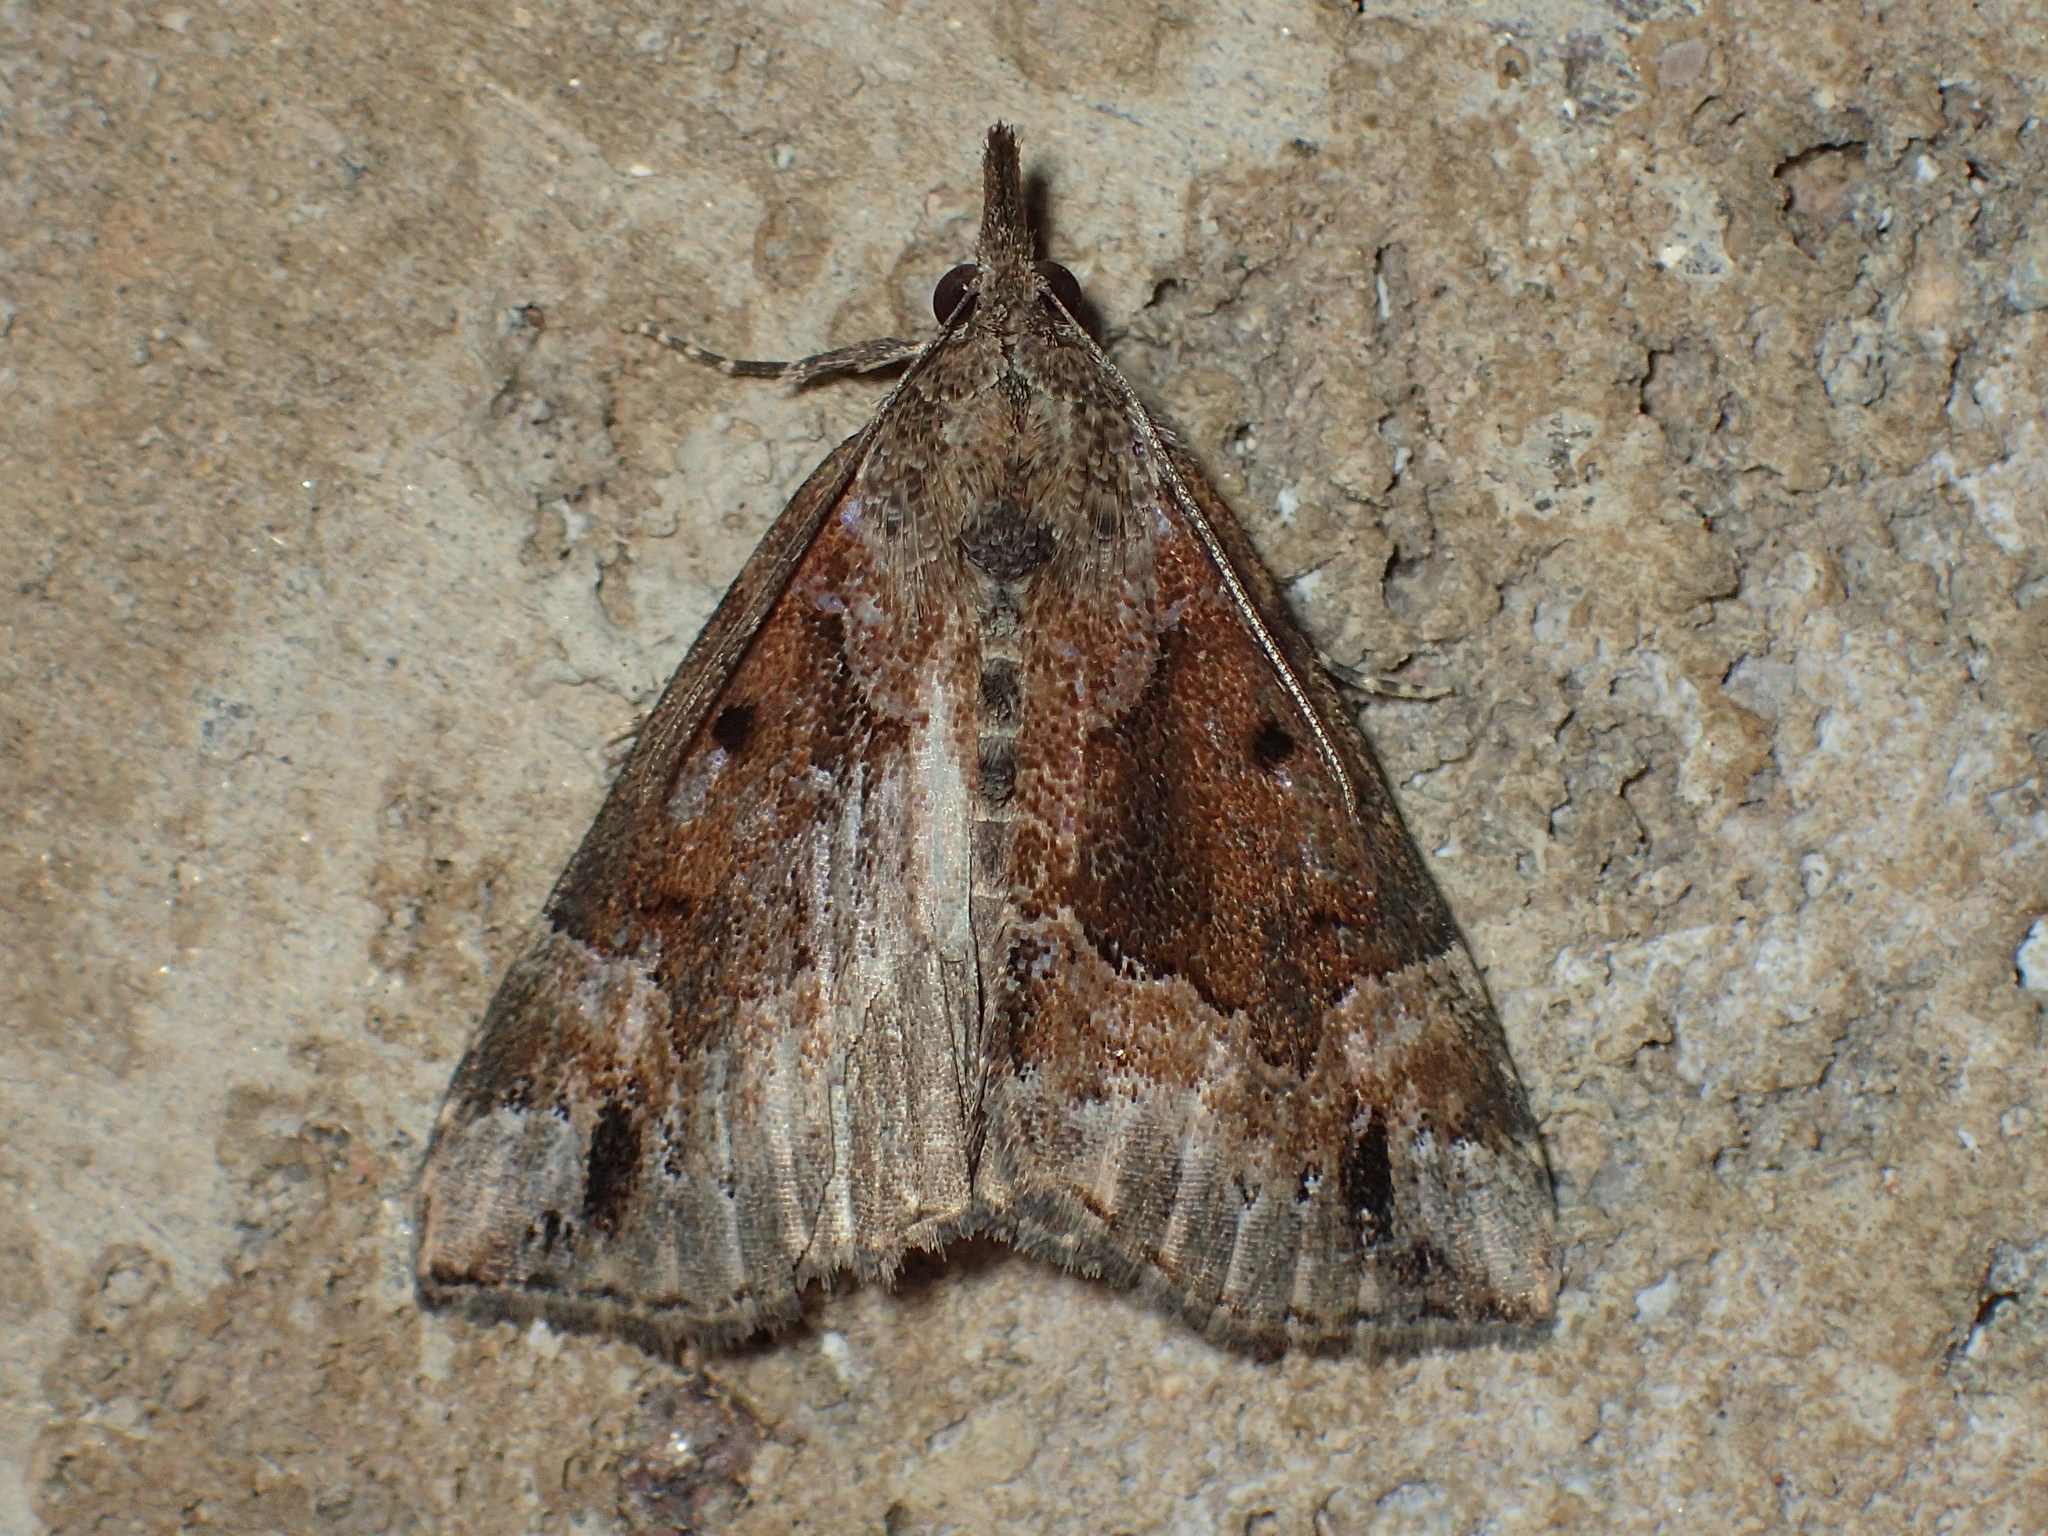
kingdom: Animalia
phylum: Arthropoda
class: Insecta
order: Lepidoptera
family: Erebidae
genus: Hypena
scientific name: Hypena palparia
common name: Mottled bomolocha moth
